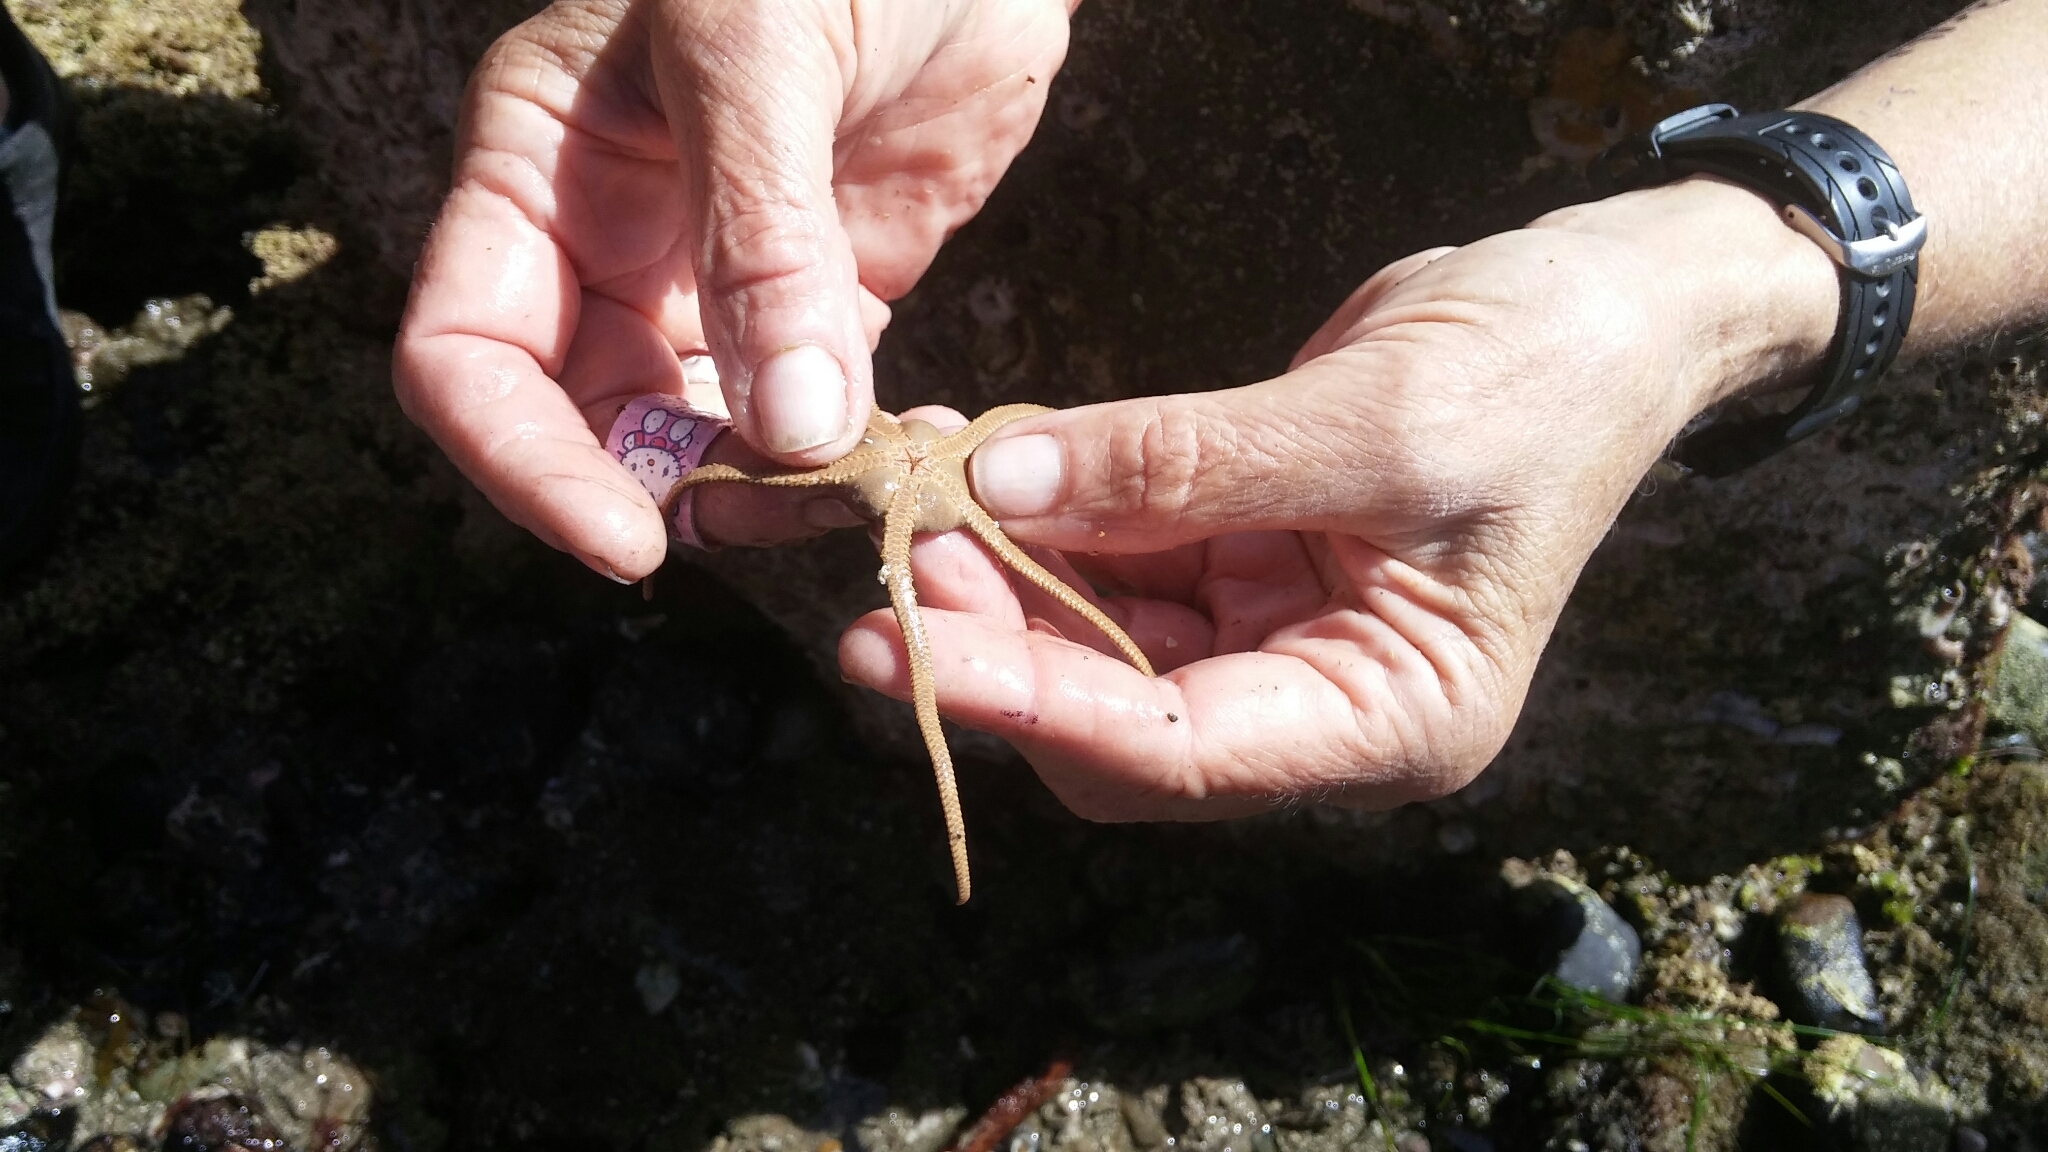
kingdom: Animalia
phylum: Echinodermata
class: Ophiuroidea
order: Amphilepidida
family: Hemieuryalidae
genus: Ophioplocus
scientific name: Ophioplocus esmarki
